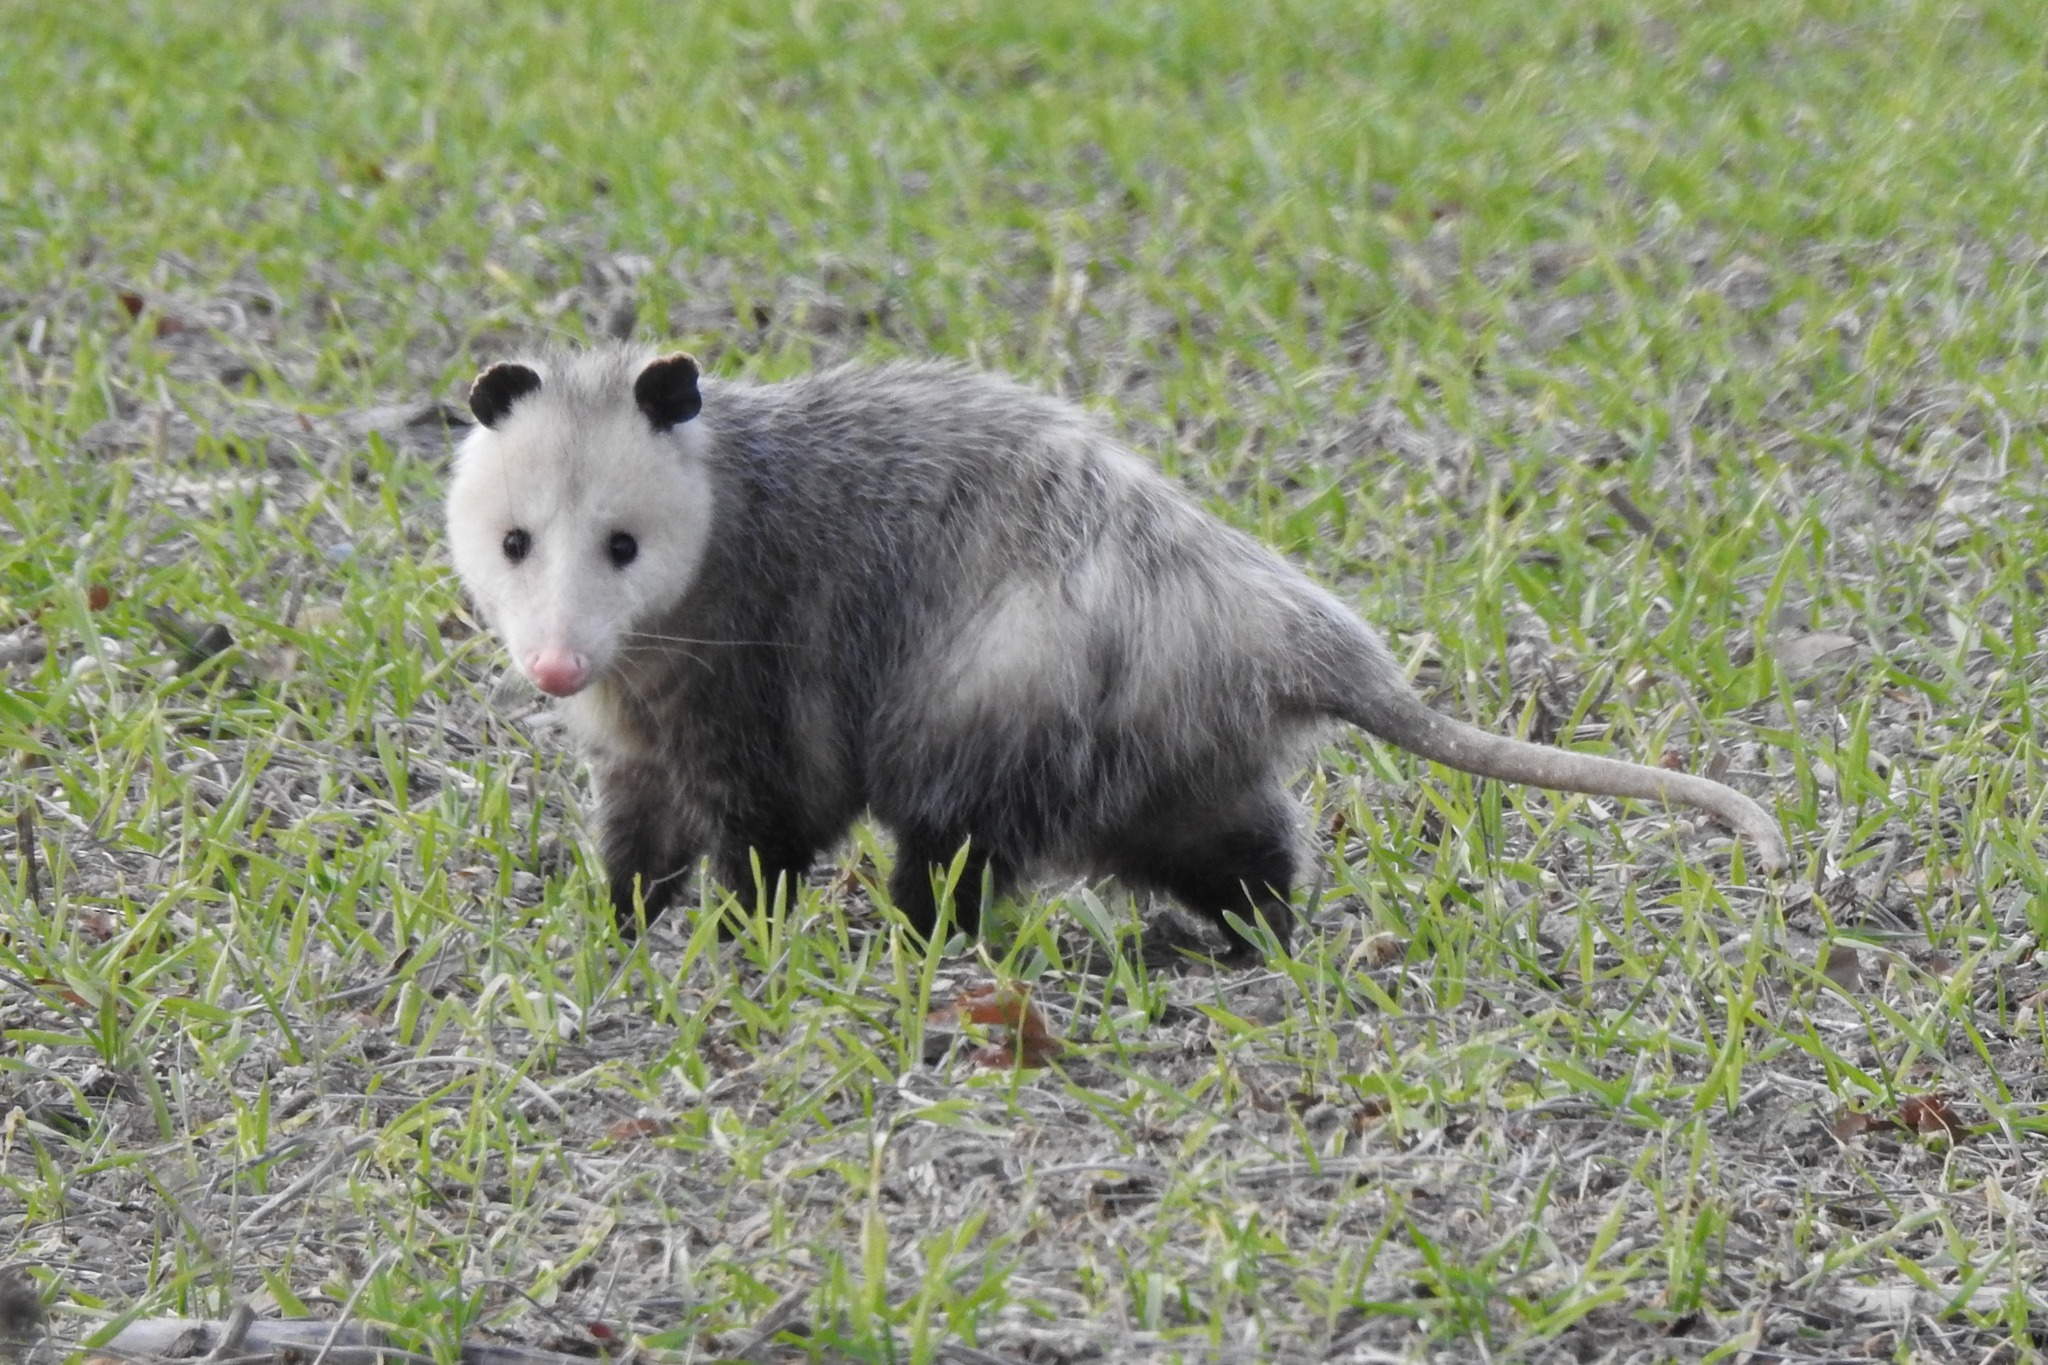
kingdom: Animalia
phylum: Chordata
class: Mammalia
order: Didelphimorphia
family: Didelphidae
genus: Didelphis
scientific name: Didelphis virginiana
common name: Virginia opossum
